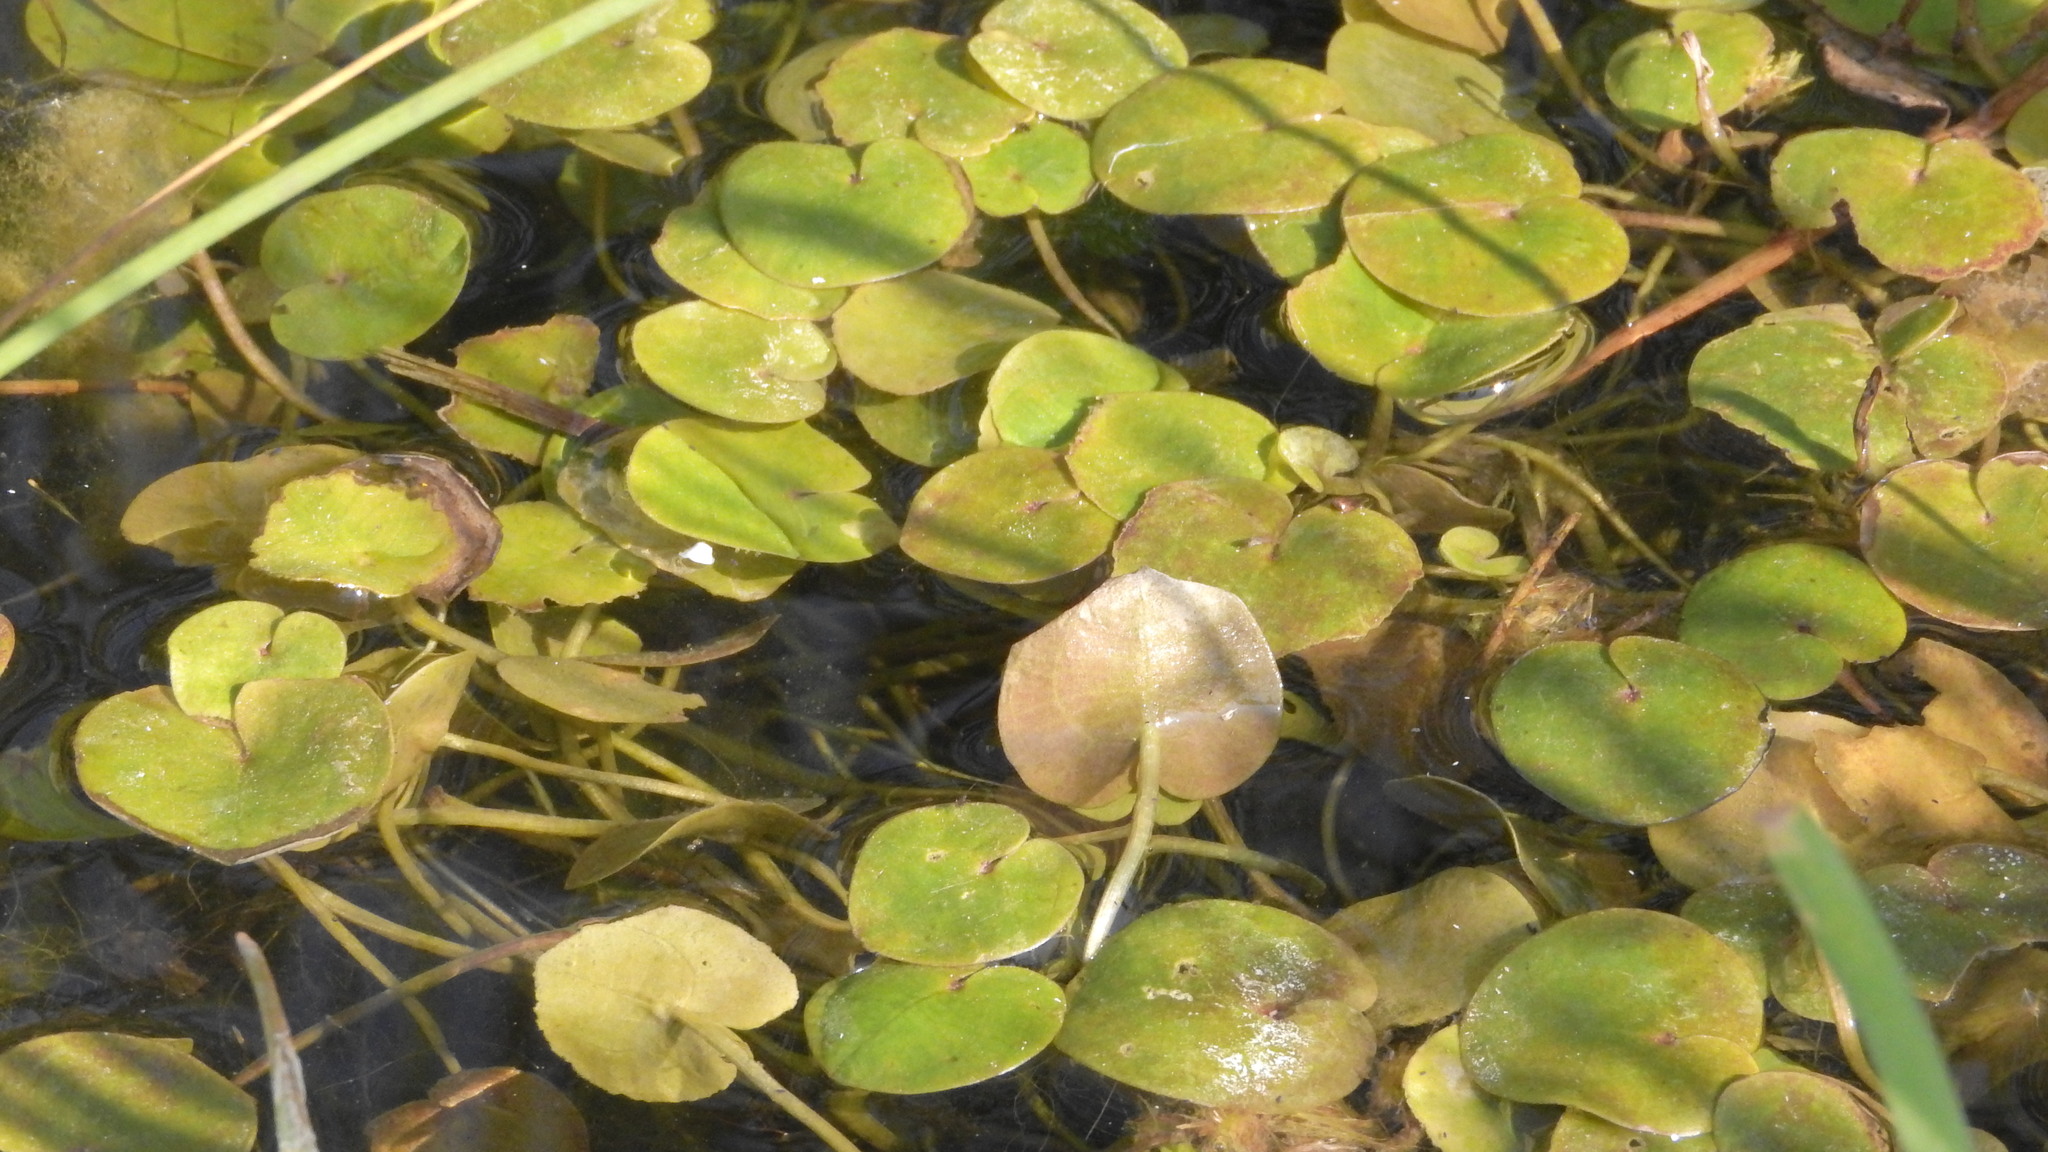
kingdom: Plantae
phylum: Tracheophyta
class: Liliopsida
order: Alismatales
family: Hydrocharitaceae
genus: Hydrocharis
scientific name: Hydrocharis morsus-ranae
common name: Frogbit
